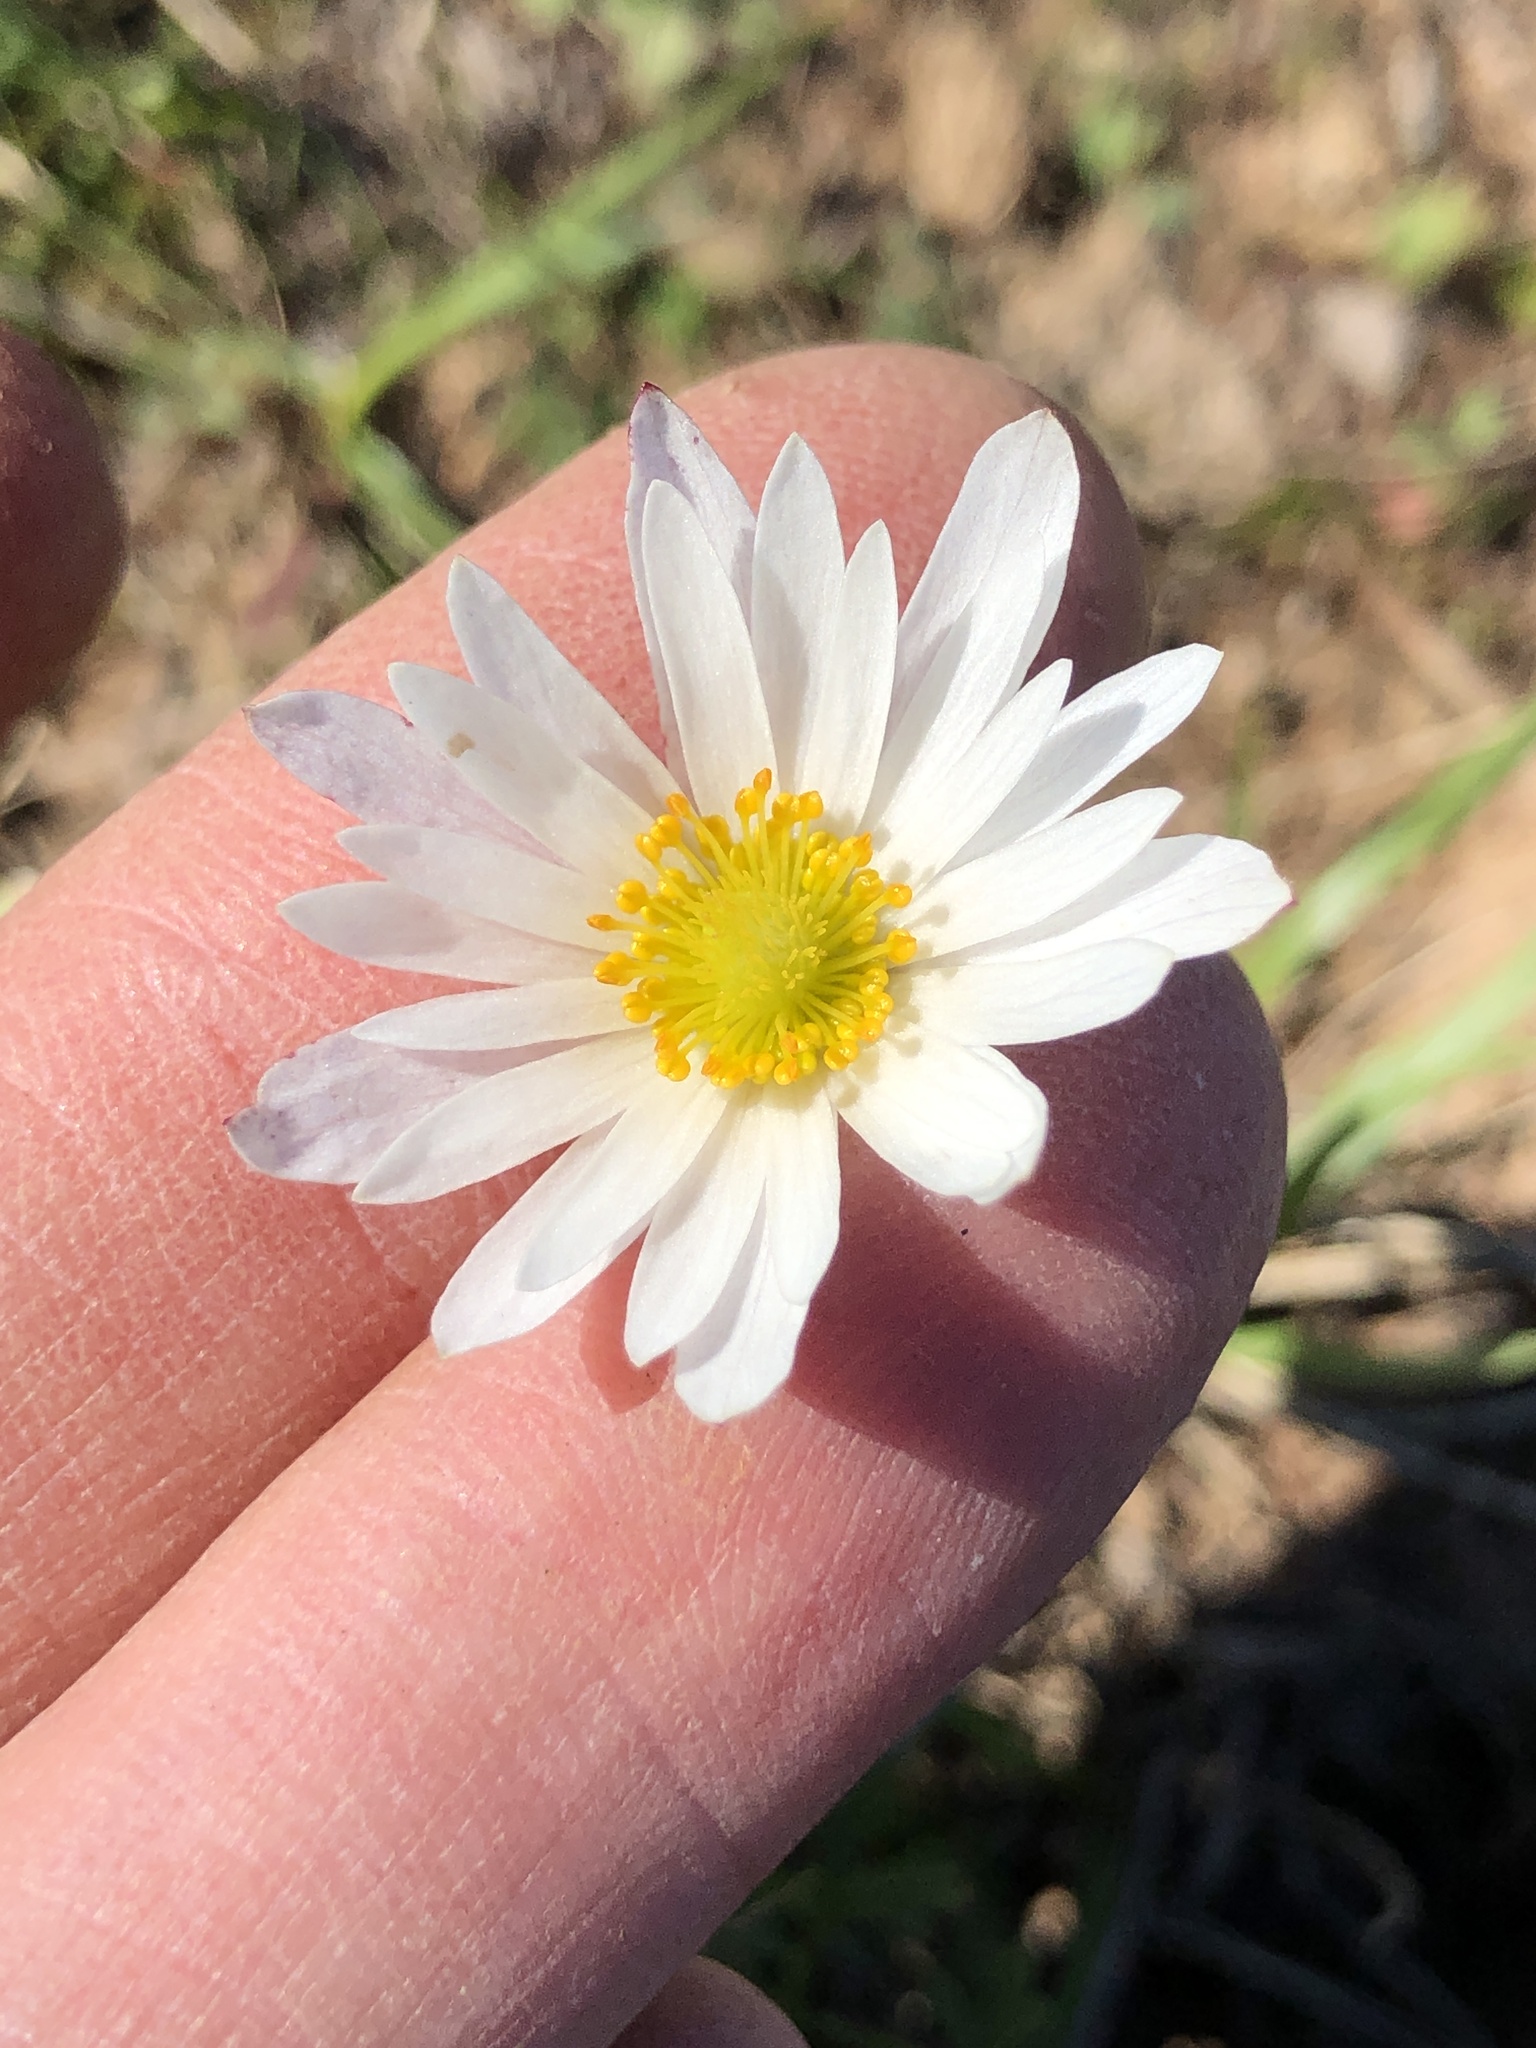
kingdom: Plantae
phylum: Tracheophyta
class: Magnoliopsida
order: Ranunculales
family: Ranunculaceae
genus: Anemone
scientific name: Anemone caroliniana
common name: Carolina anemone
